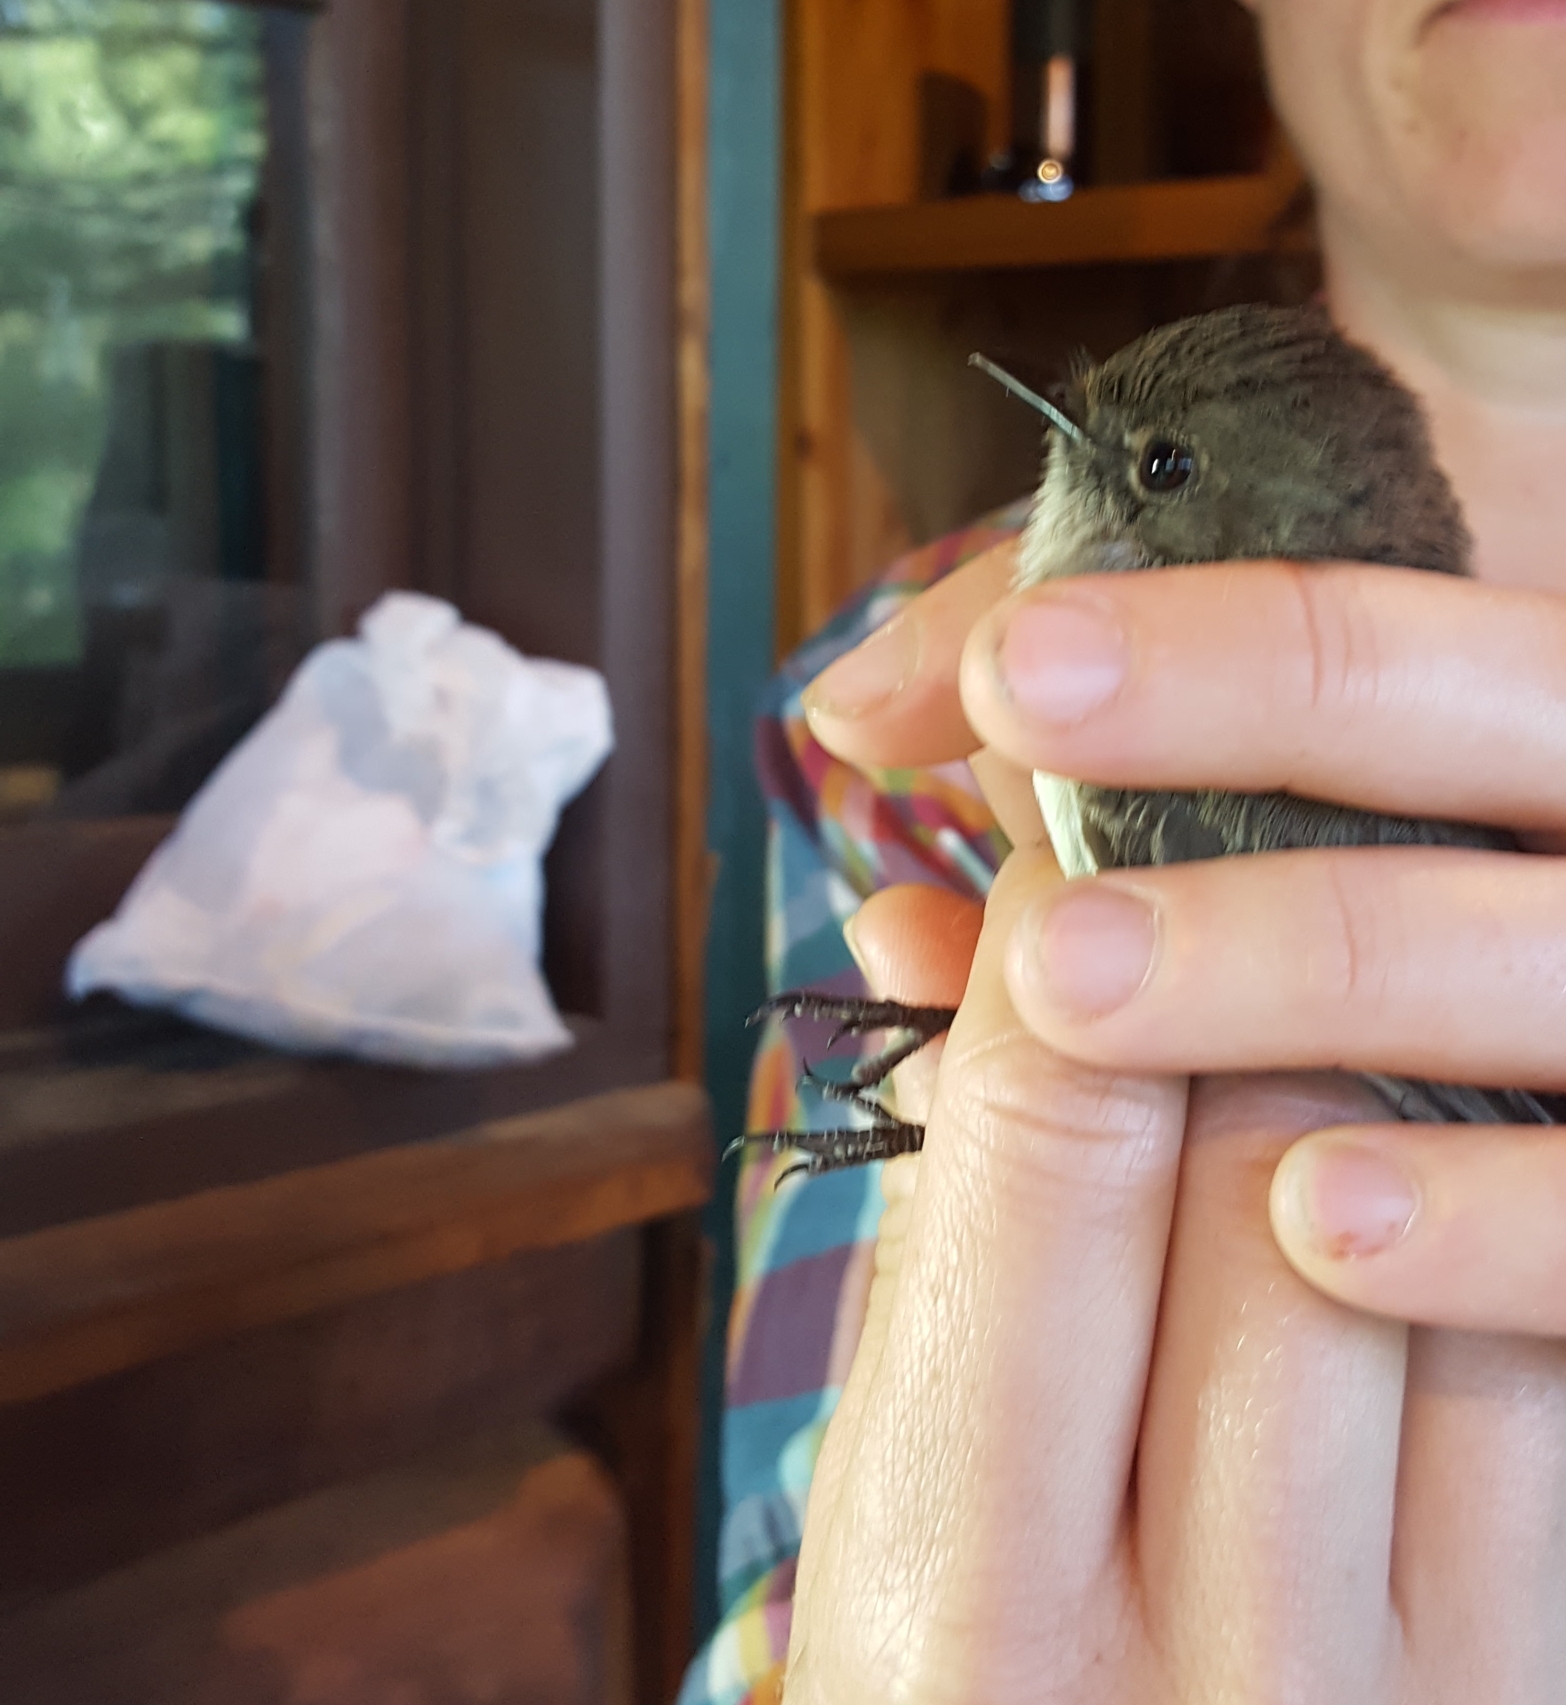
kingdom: Animalia
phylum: Chordata
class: Aves
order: Passeriformes
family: Tyrannidae
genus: Sayornis
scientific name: Sayornis phoebe
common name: Eastern phoebe
